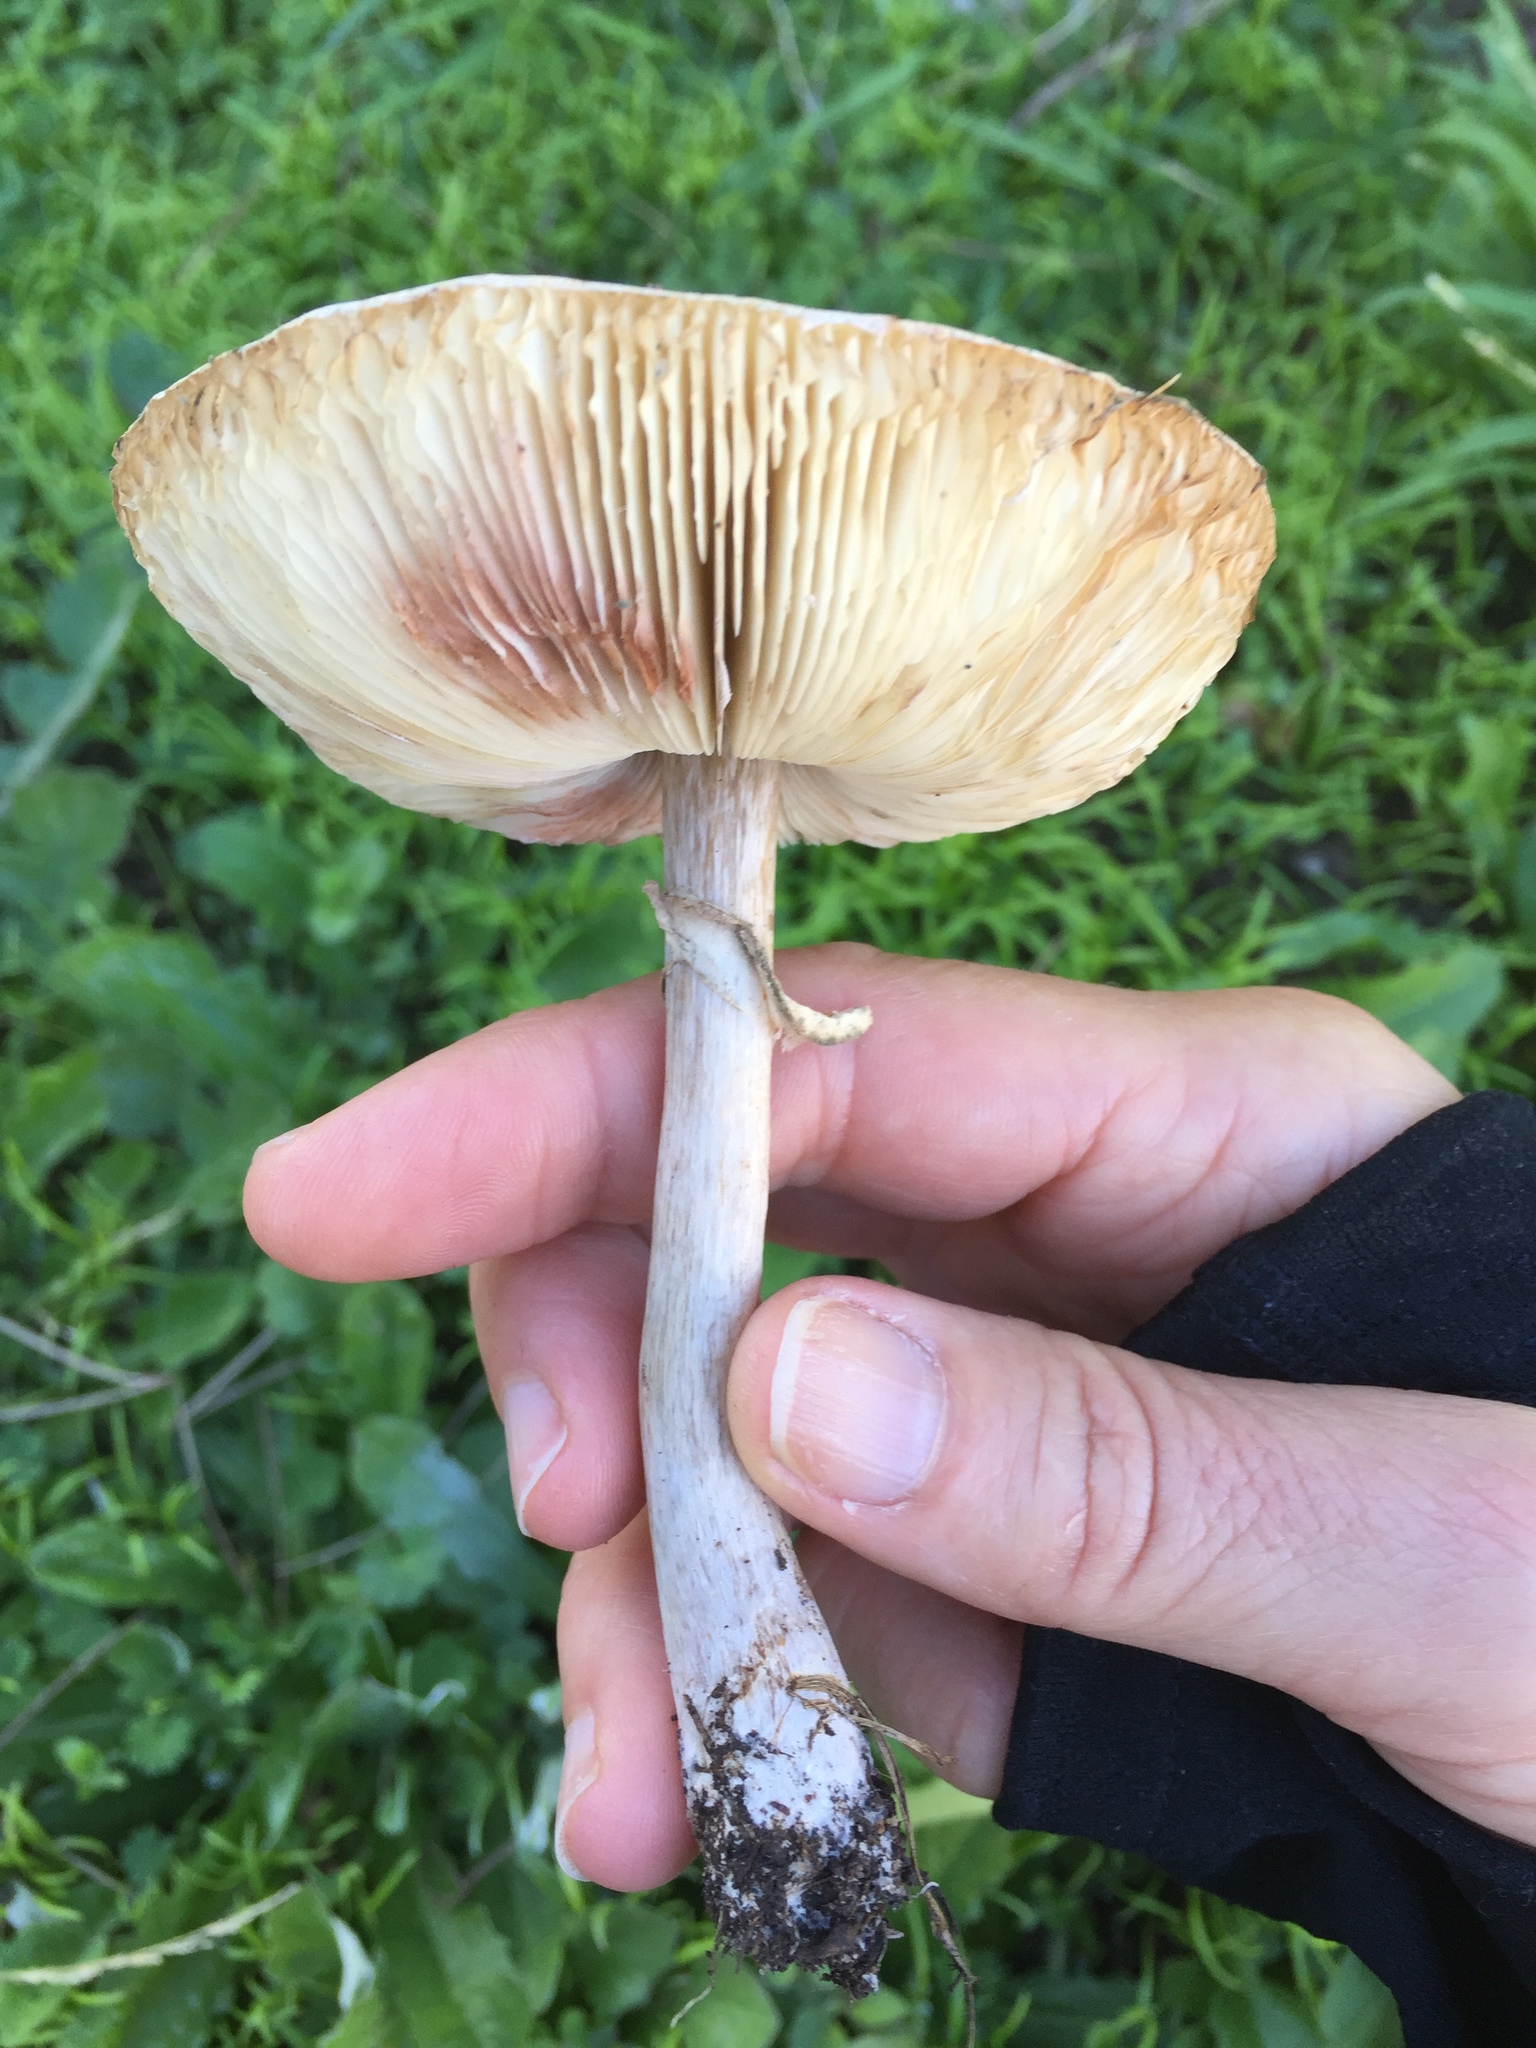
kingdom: Fungi
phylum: Basidiomycota
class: Agaricomycetes
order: Agaricales
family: Agaricaceae
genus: Leucoagaricus
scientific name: Leucoagaricus leucothites
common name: White dapperling
